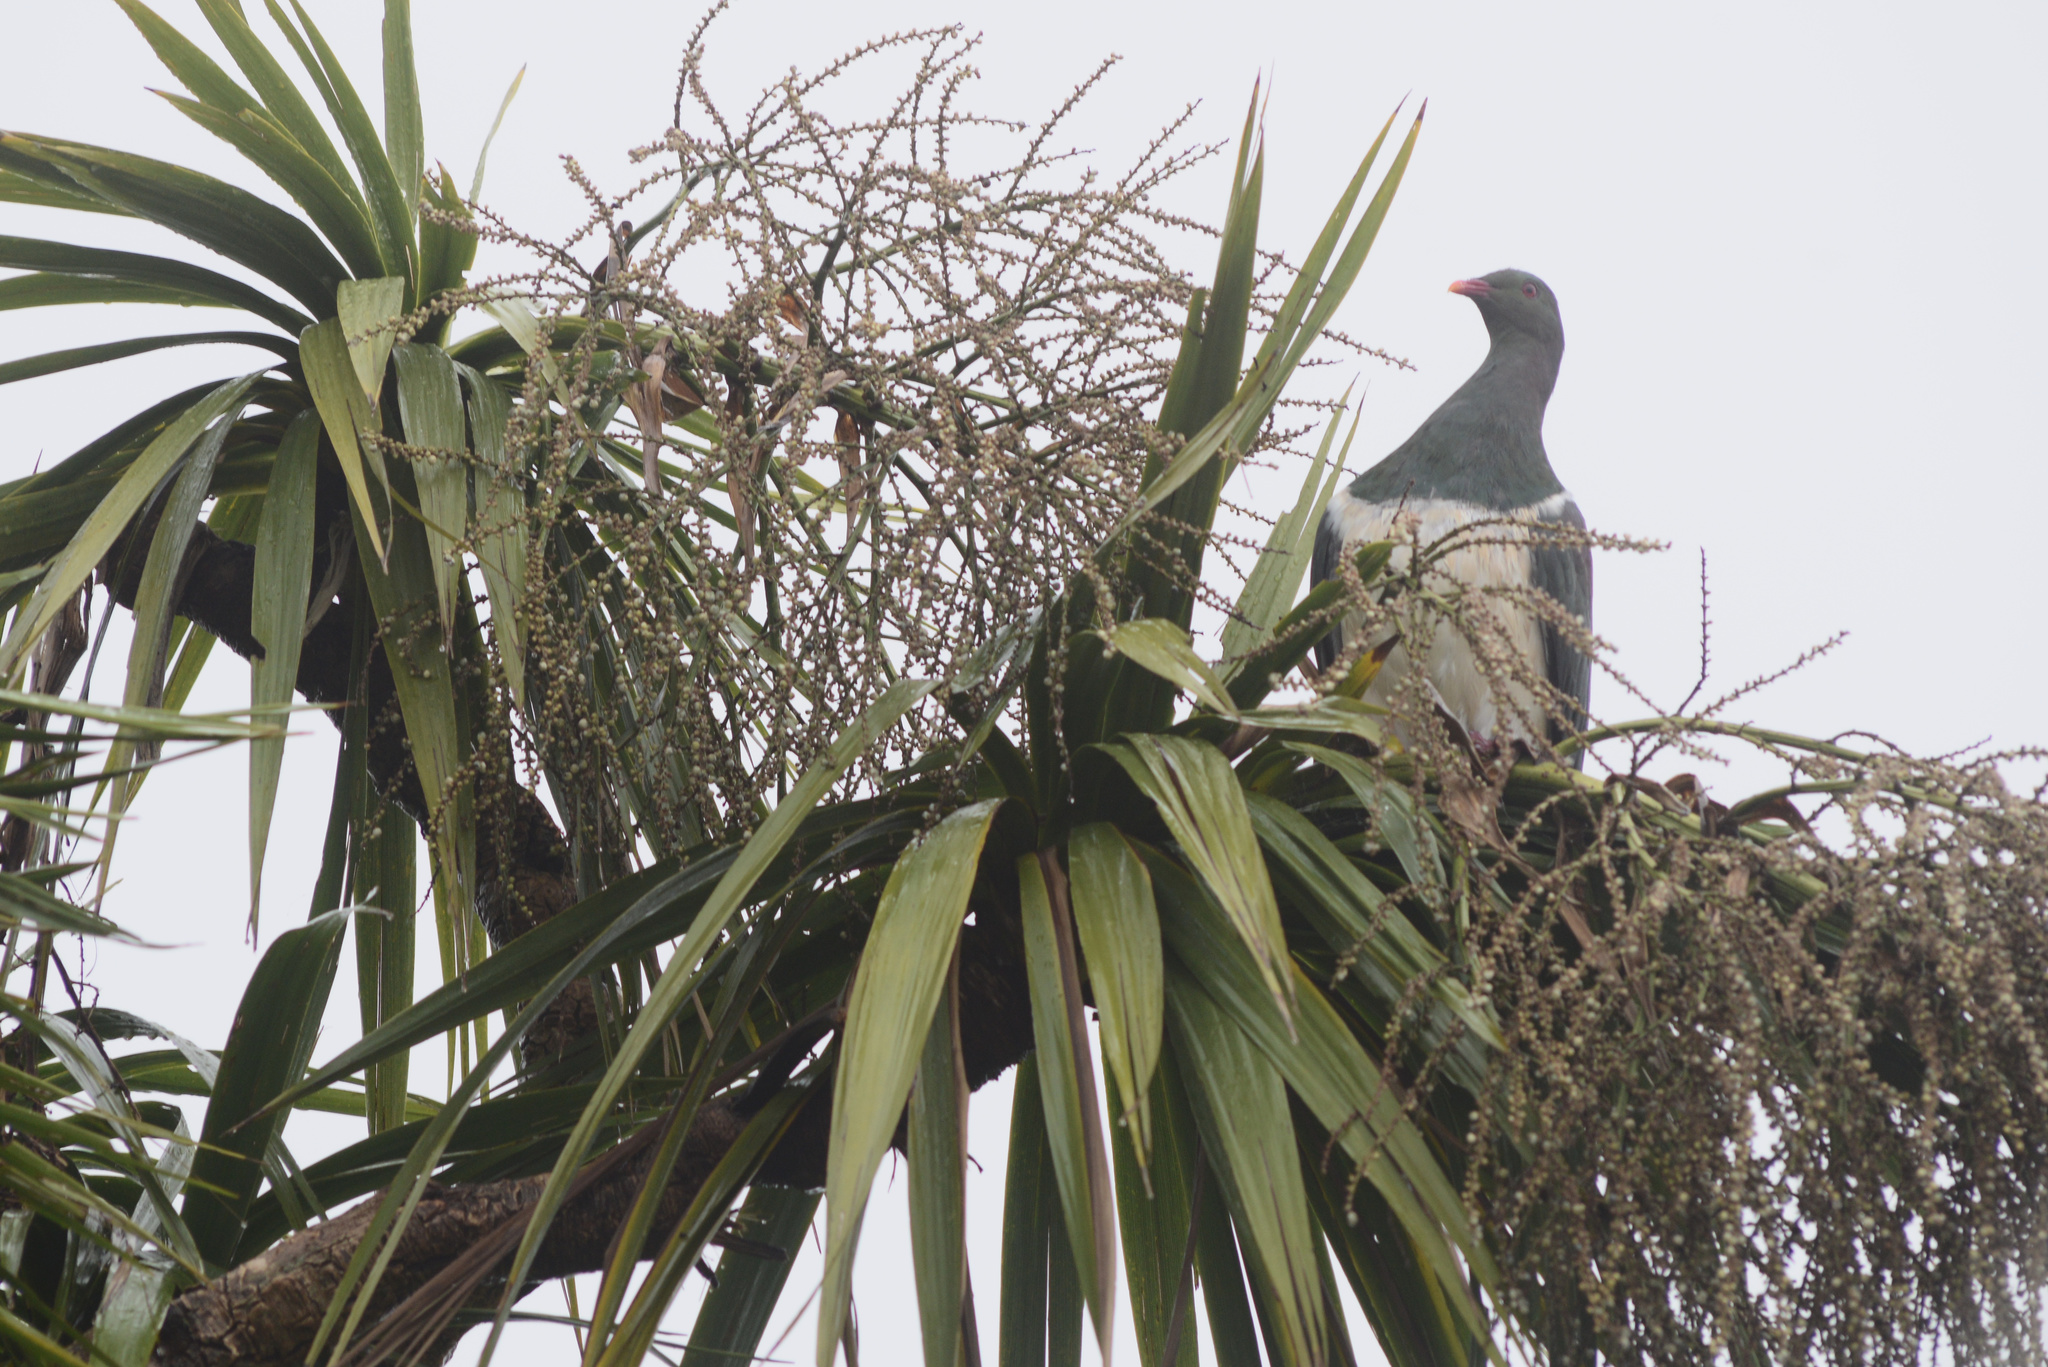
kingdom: Animalia
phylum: Chordata
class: Aves
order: Columbiformes
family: Columbidae
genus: Hemiphaga
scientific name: Hemiphaga novaeseelandiae
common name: New zealand pigeon
